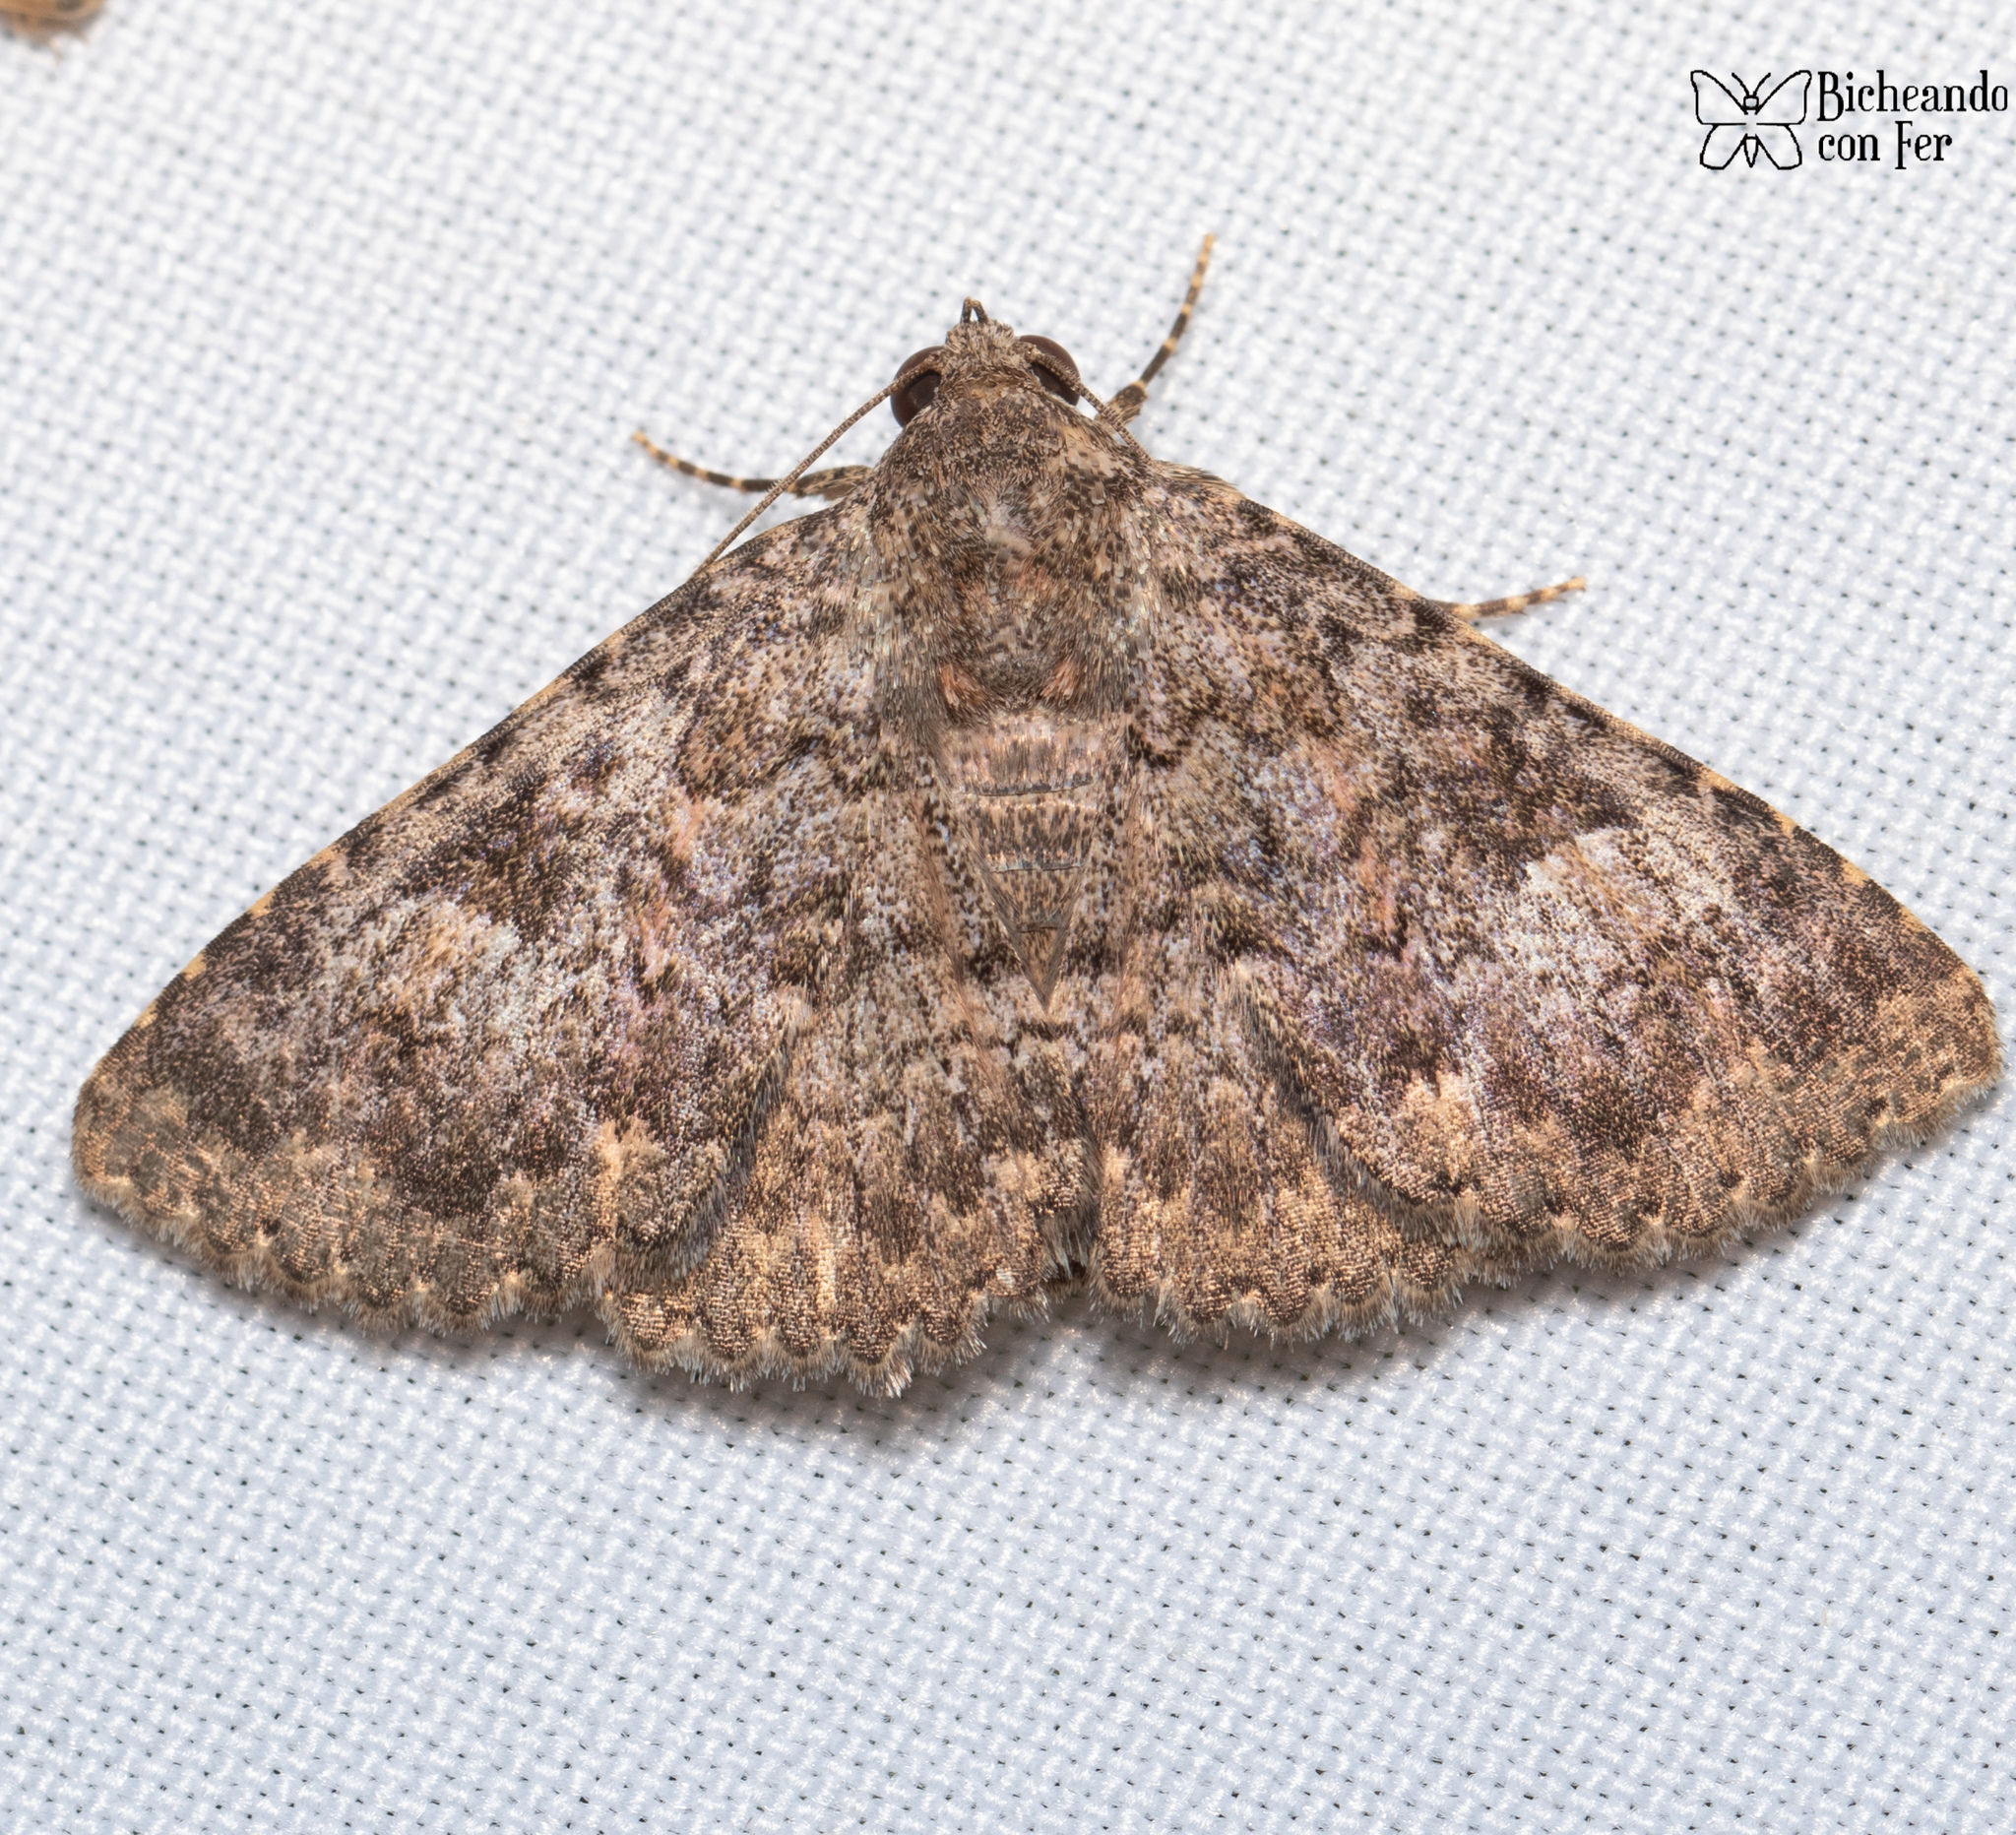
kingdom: Animalia
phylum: Arthropoda
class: Insecta
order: Lepidoptera
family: Erebidae
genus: Matigramma
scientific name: Matigramma obscurior
